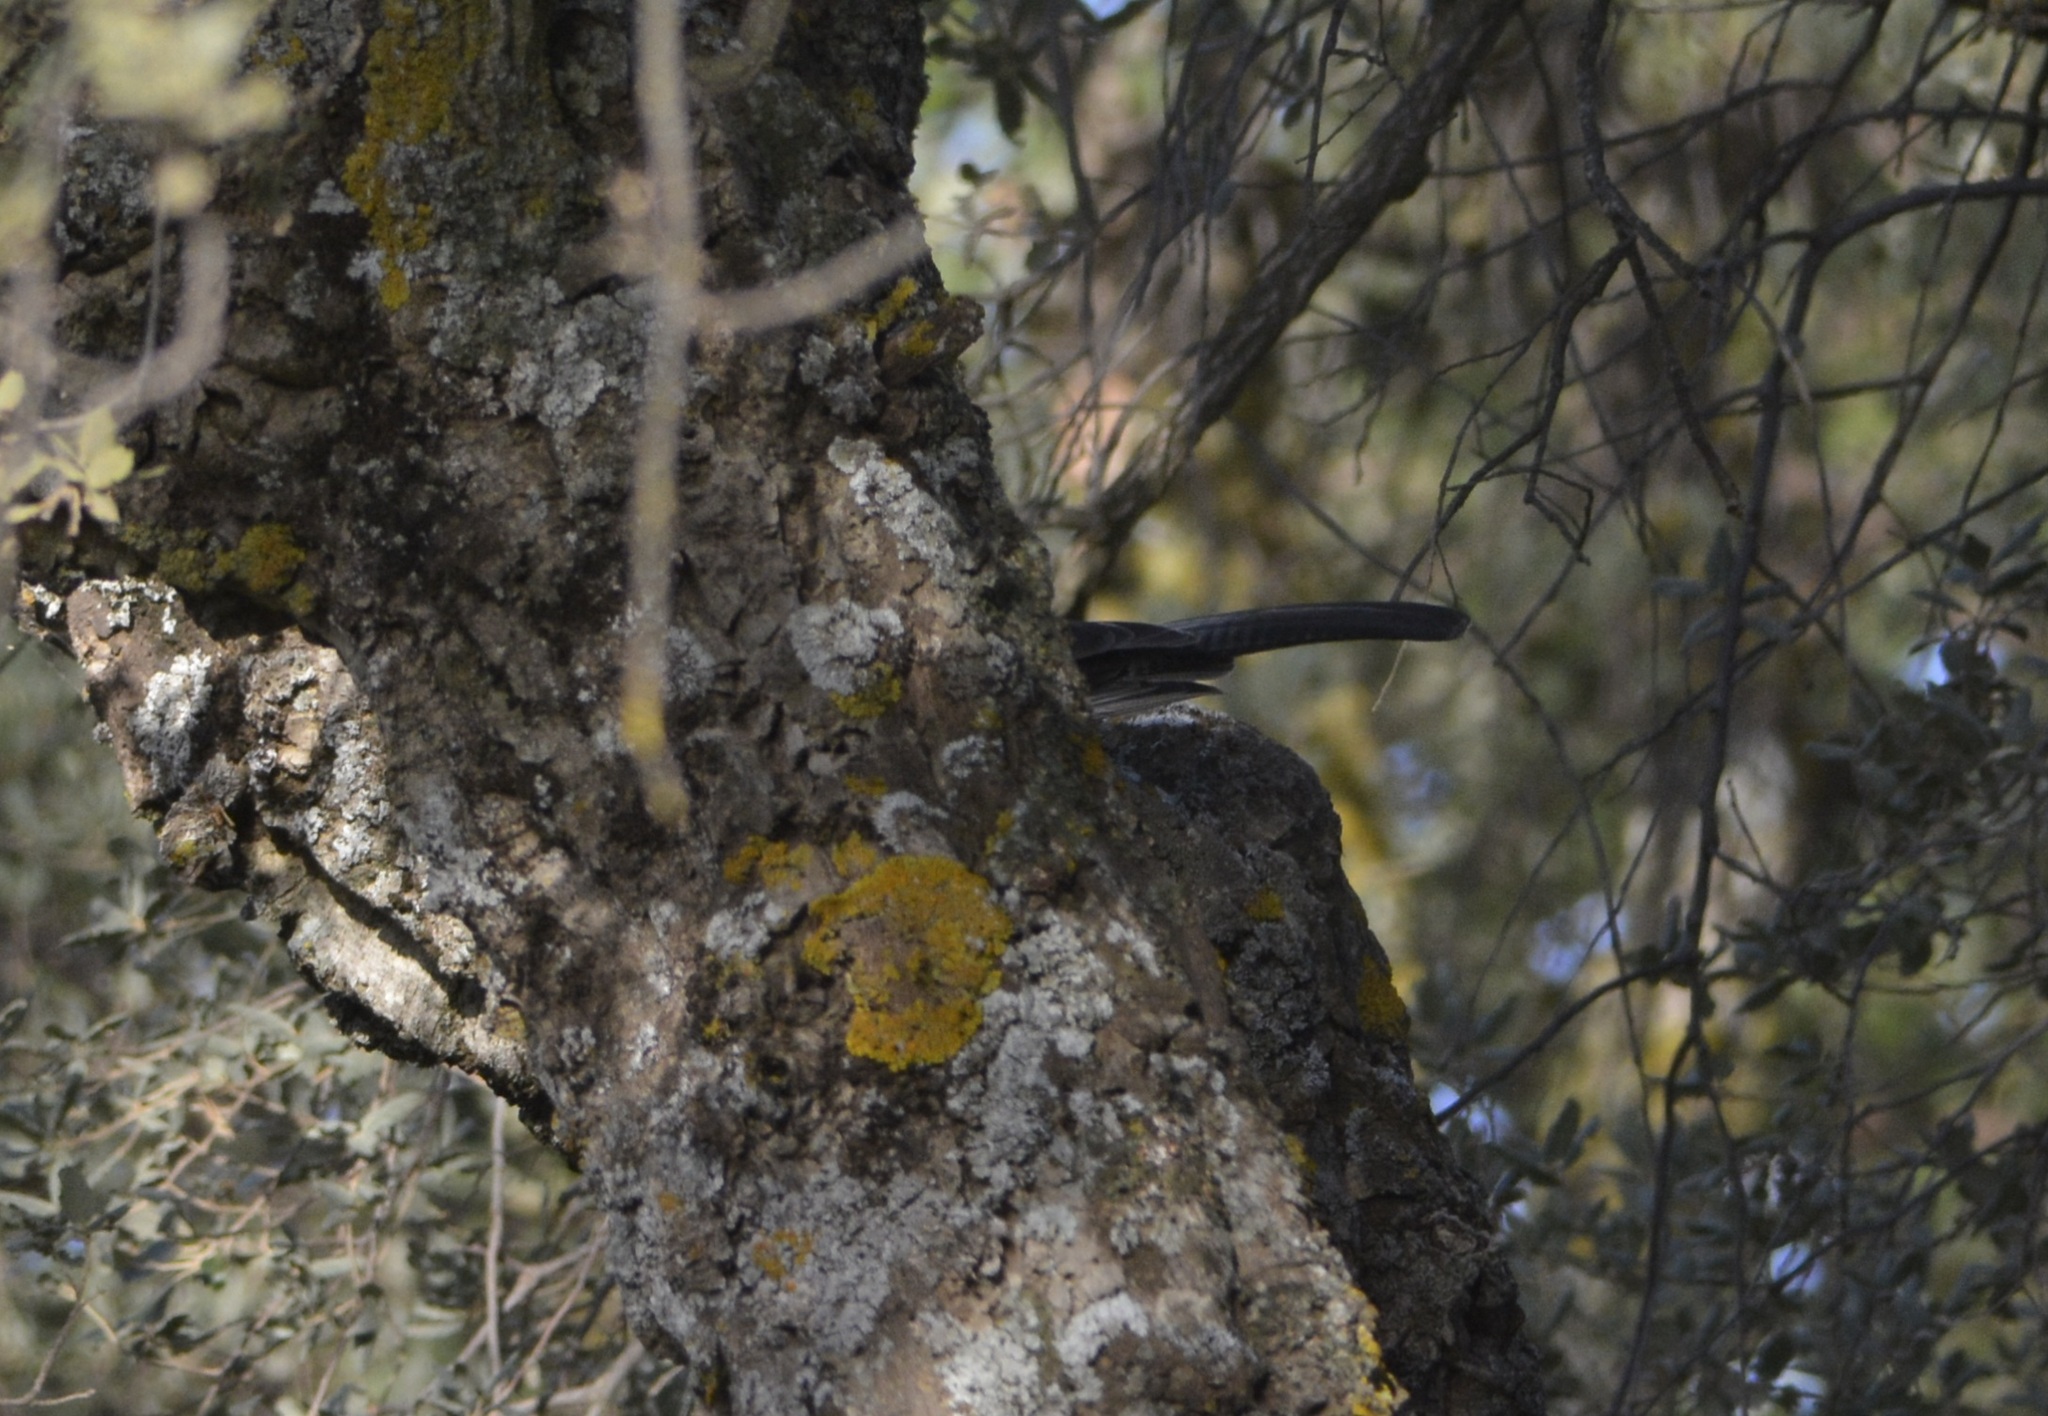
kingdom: Animalia
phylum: Chordata
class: Aves
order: Passeriformes
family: Corvidae
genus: Garrulus
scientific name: Garrulus glandarius
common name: Eurasian jay
